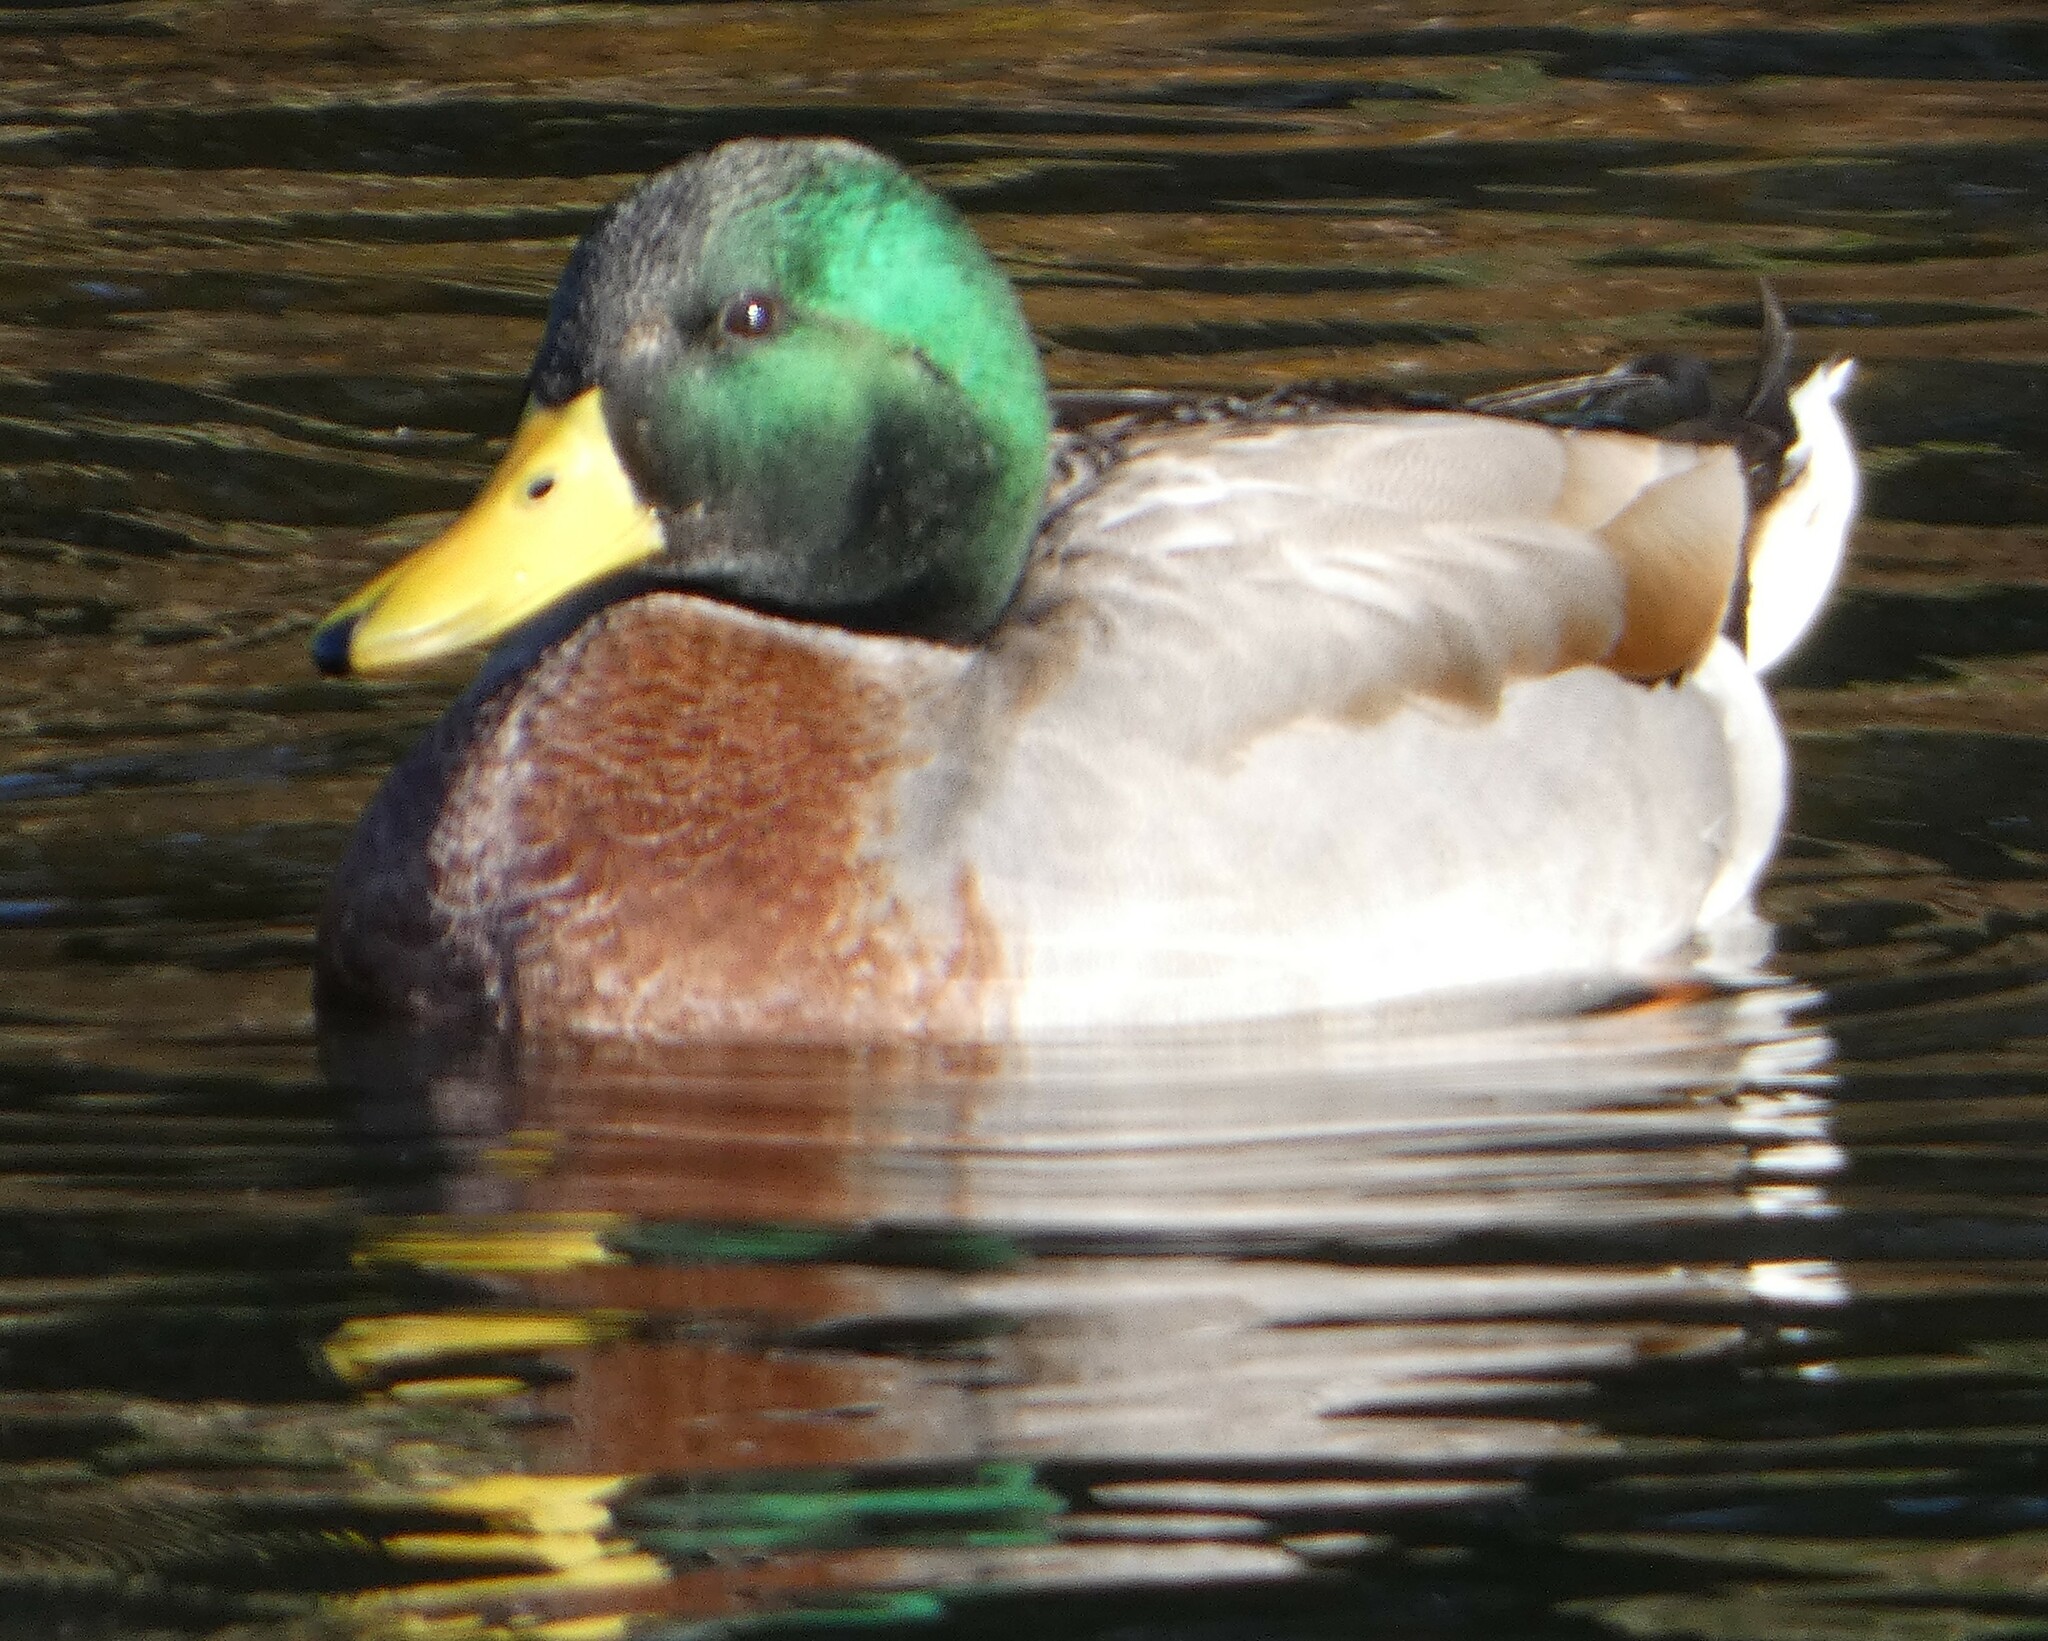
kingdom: Animalia
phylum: Chordata
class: Aves
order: Anseriformes
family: Anatidae
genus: Anas
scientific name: Anas platyrhynchos
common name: Mallard
